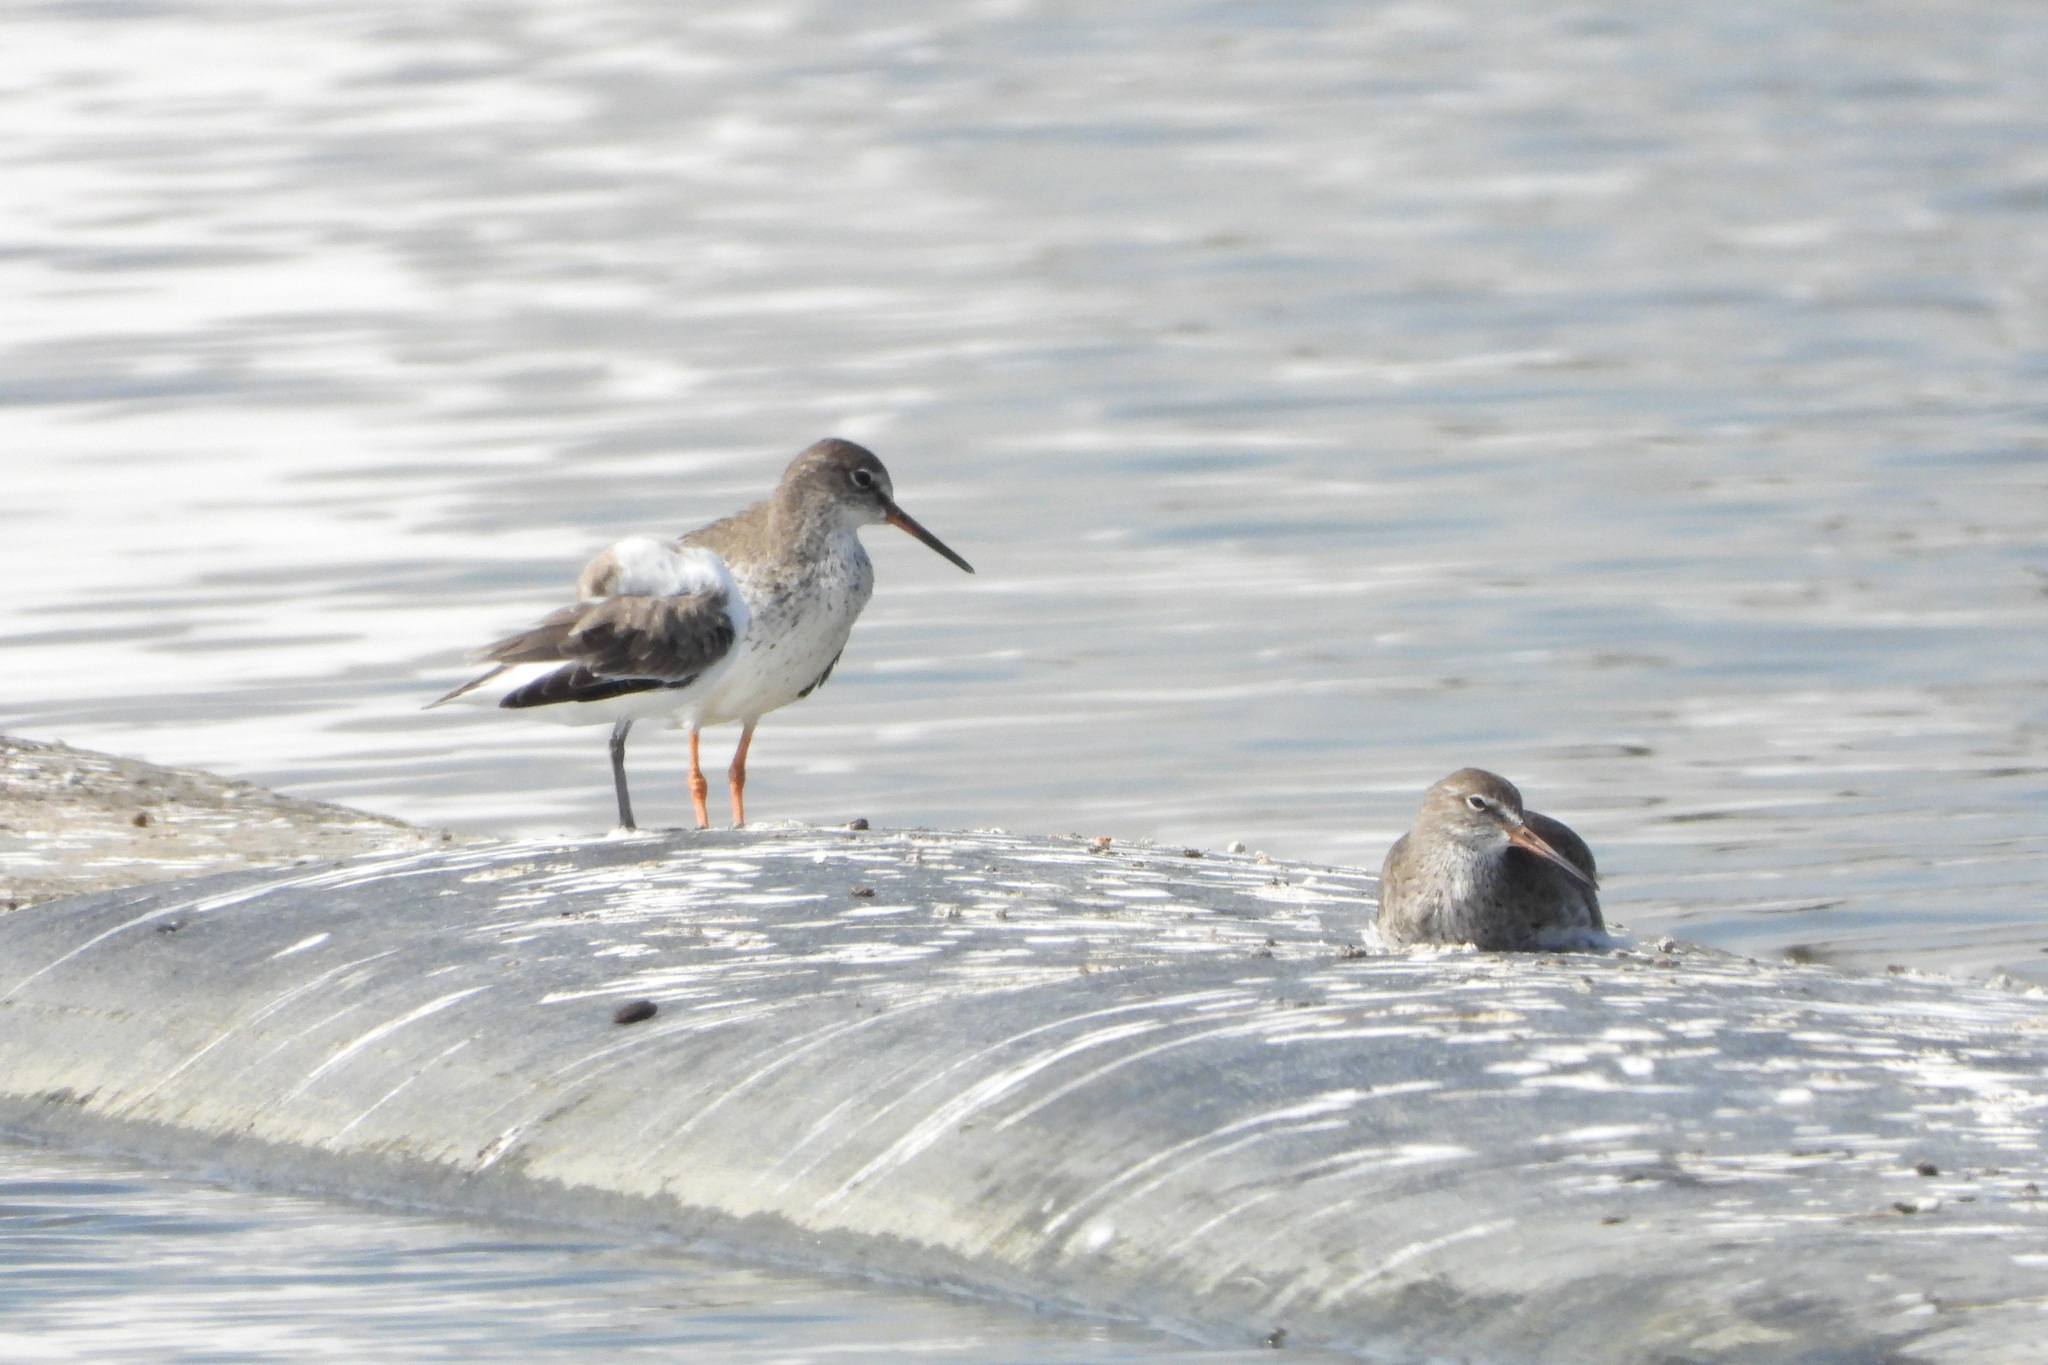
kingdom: Animalia
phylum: Chordata
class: Aves
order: Charadriiformes
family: Scolopacidae
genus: Tringa
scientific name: Tringa totanus
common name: Common redshank
